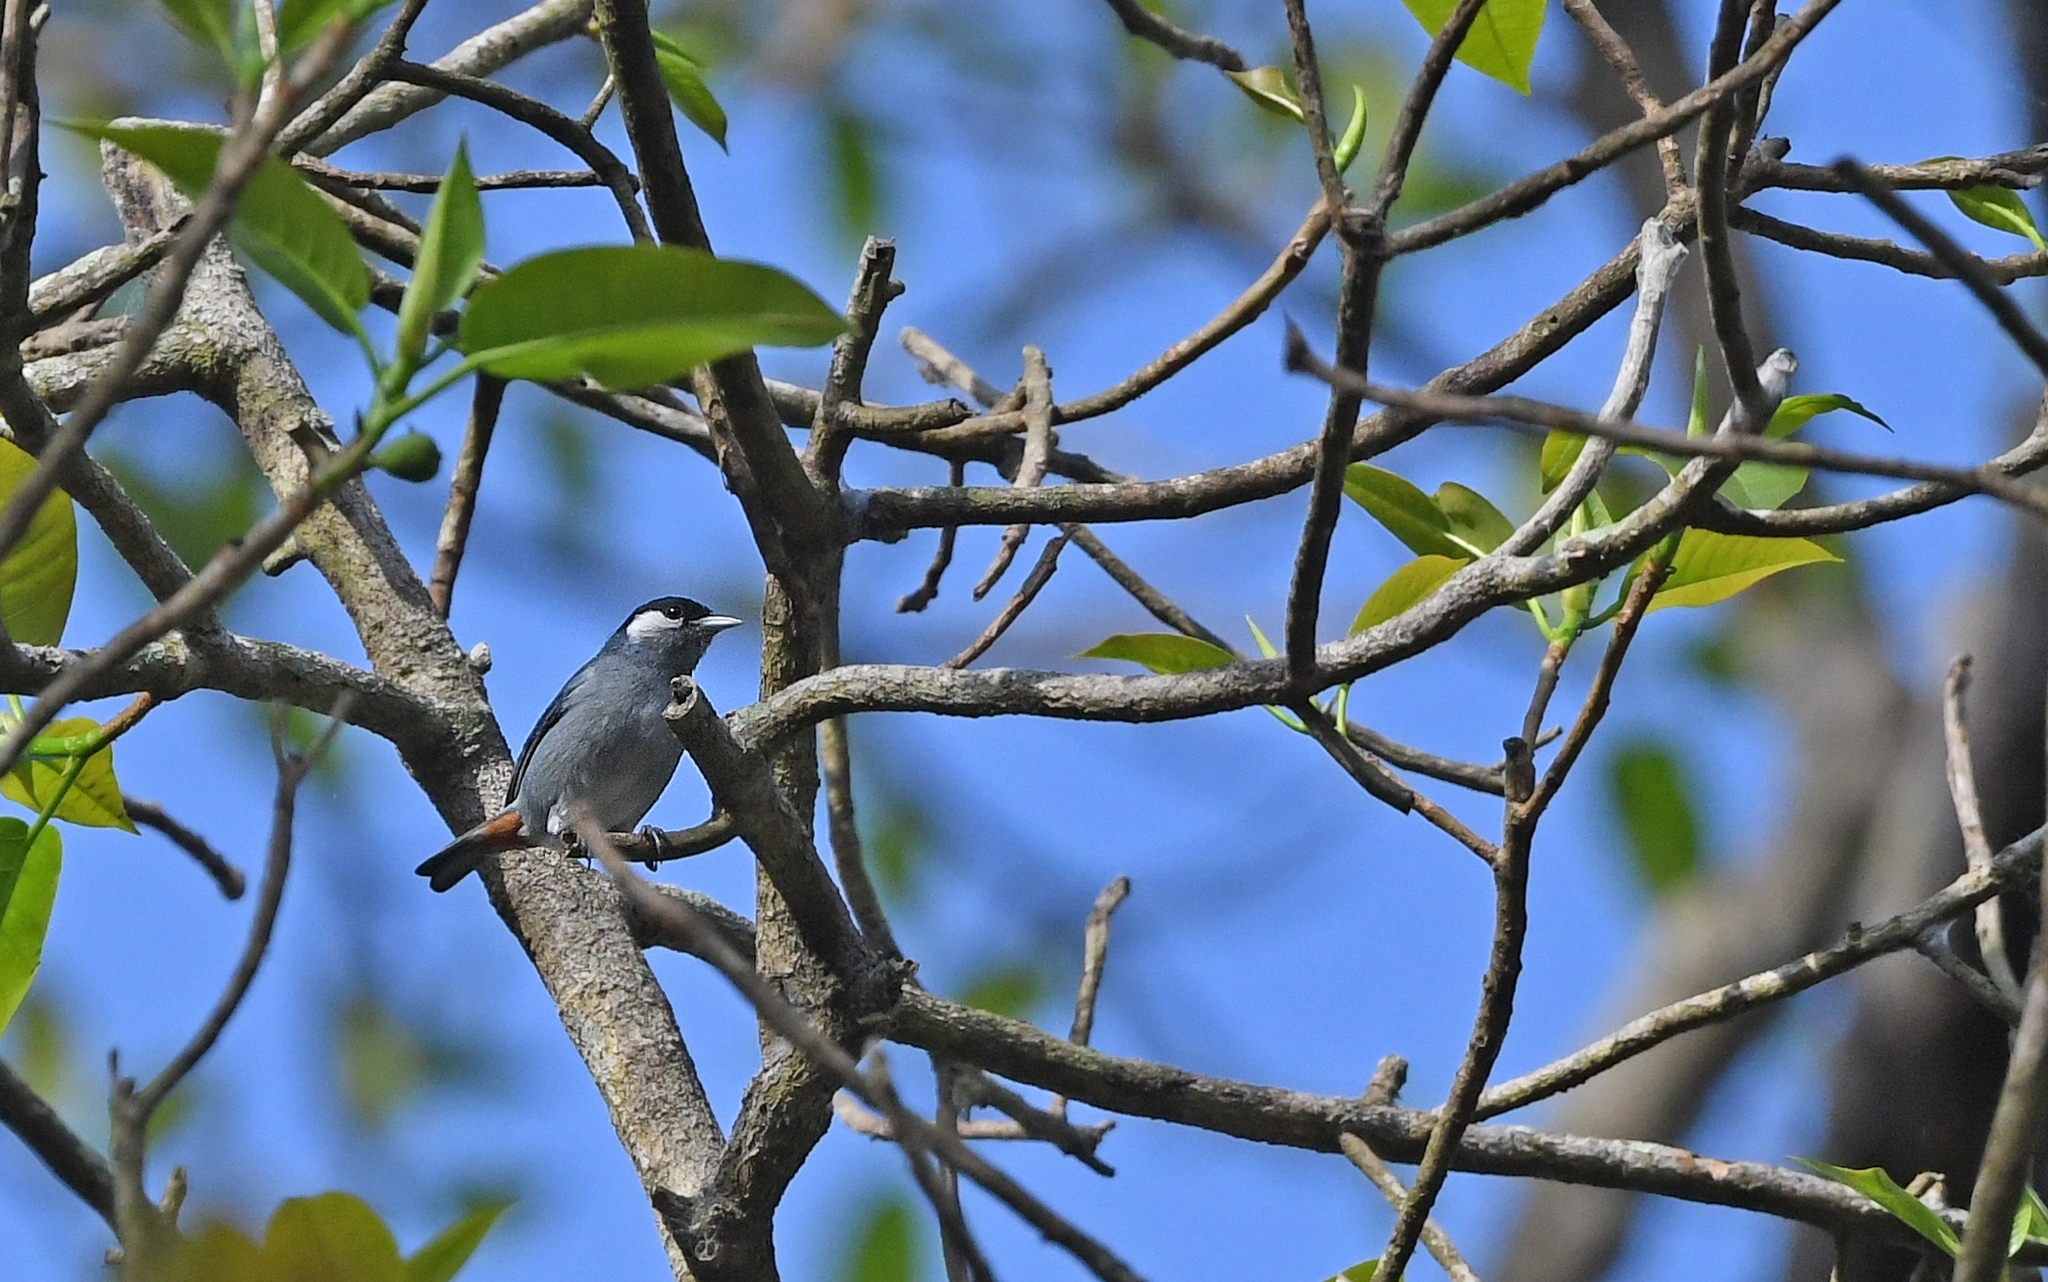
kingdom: Animalia
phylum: Chordata
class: Aves
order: Passeriformes
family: Thraupidae
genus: Conirostrum
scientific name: Conirostrum leucogenys
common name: White-eared conebill
